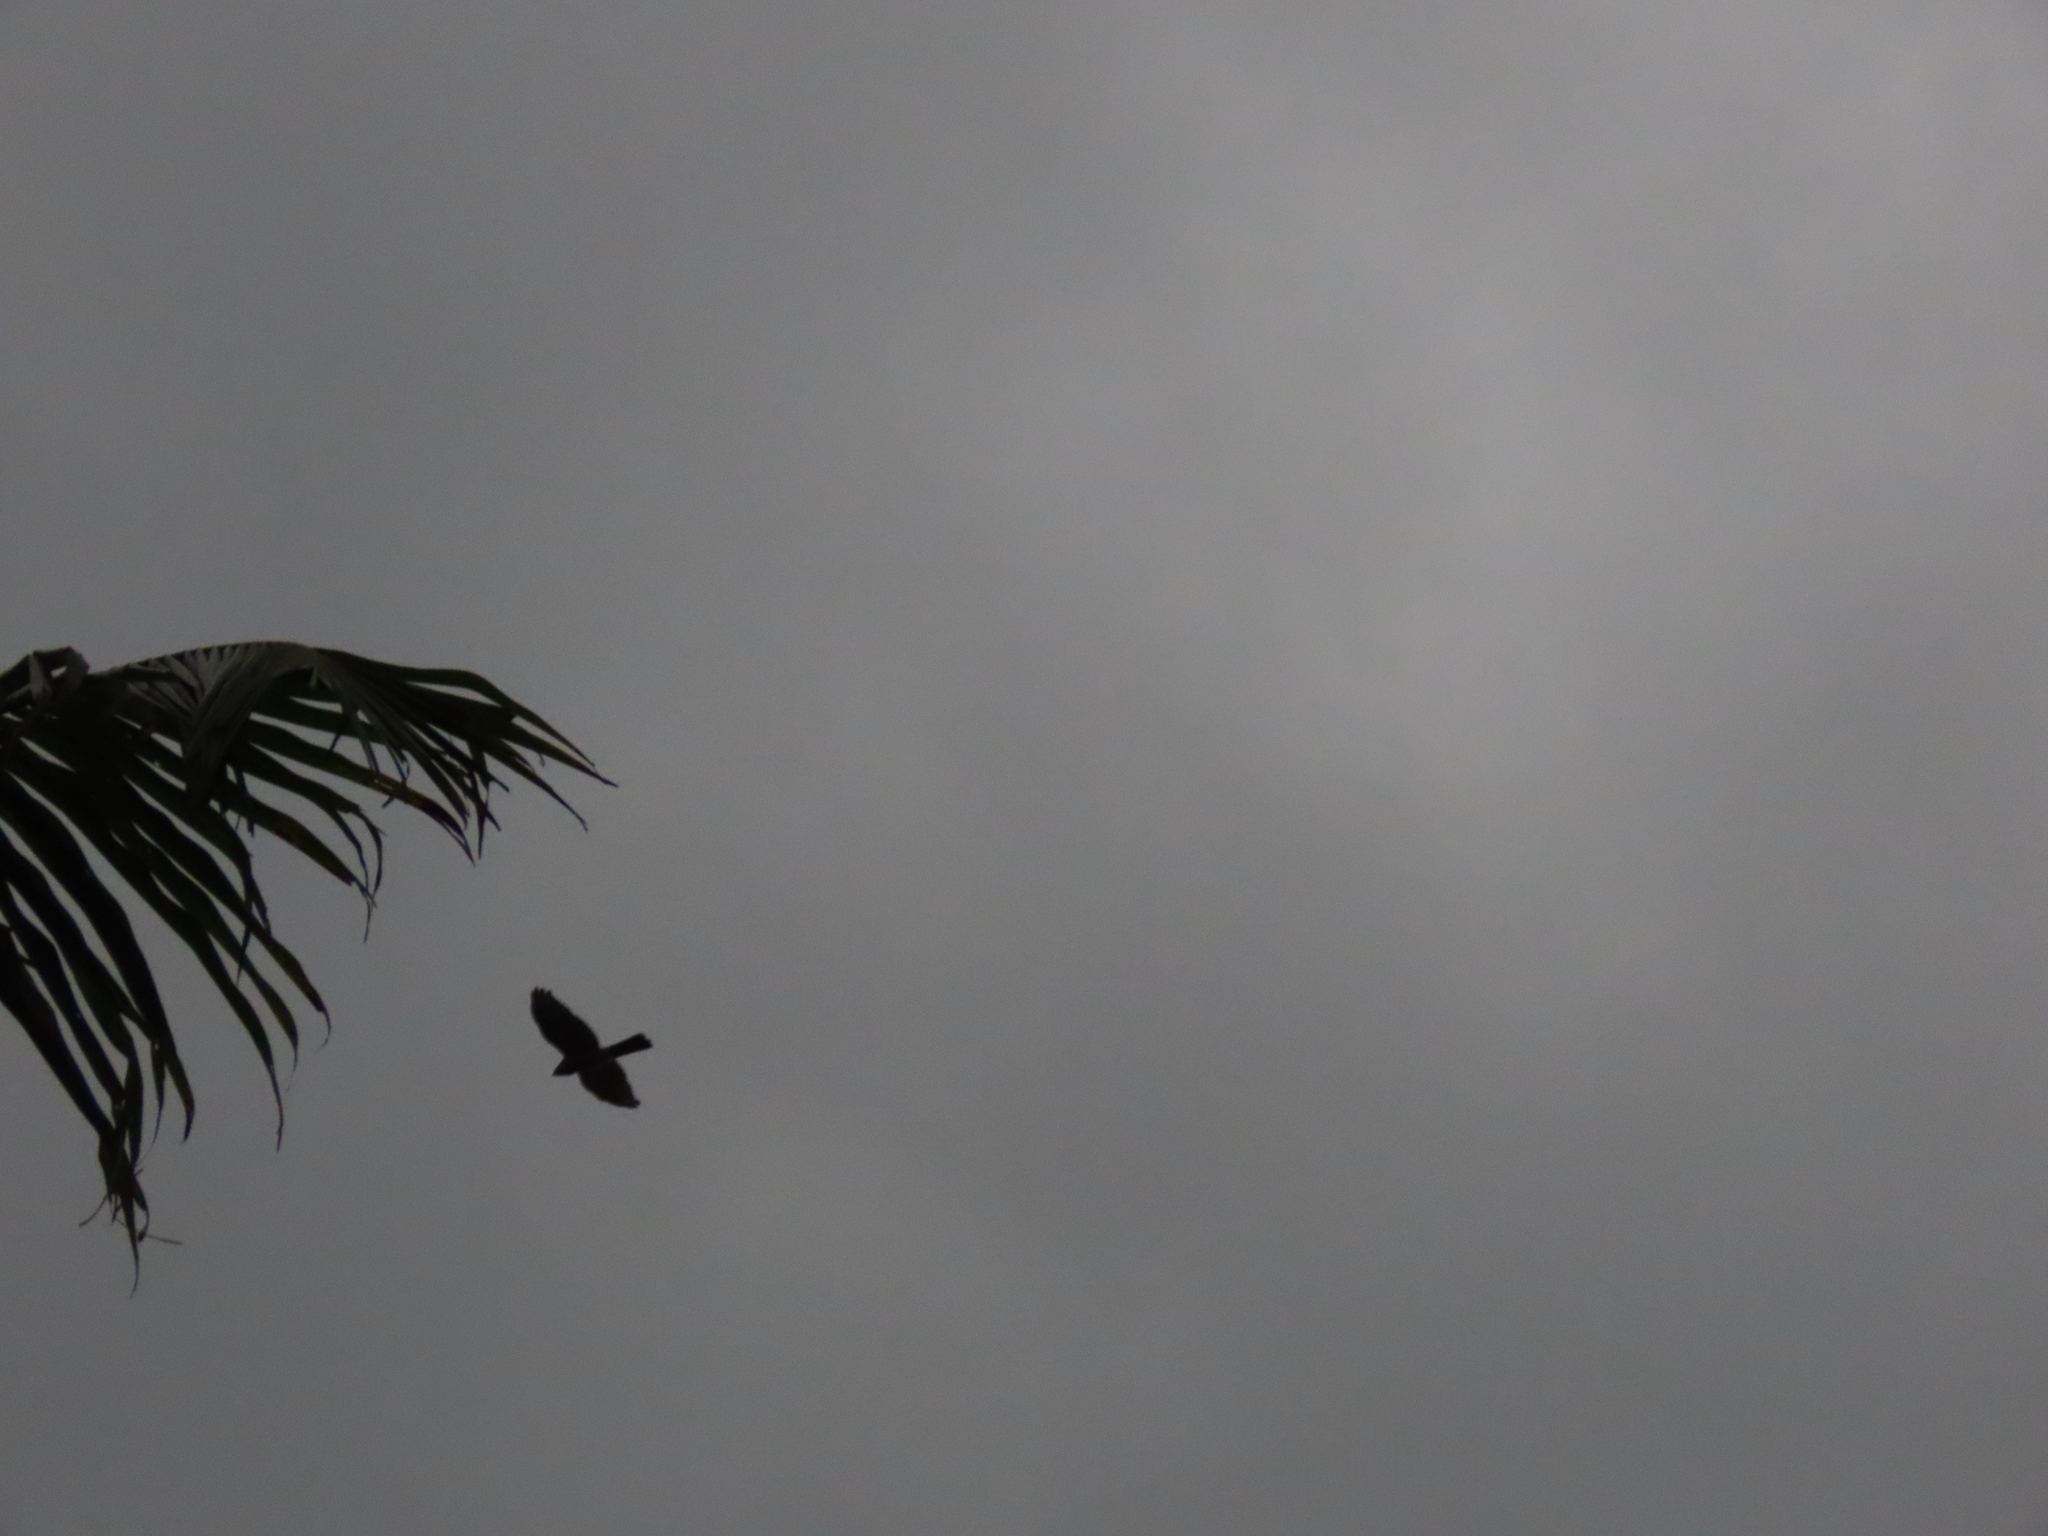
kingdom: Animalia
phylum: Chordata
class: Aves
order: Accipitriformes
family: Accipitridae
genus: Accipiter
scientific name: Accipiter badius
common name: Shikra
